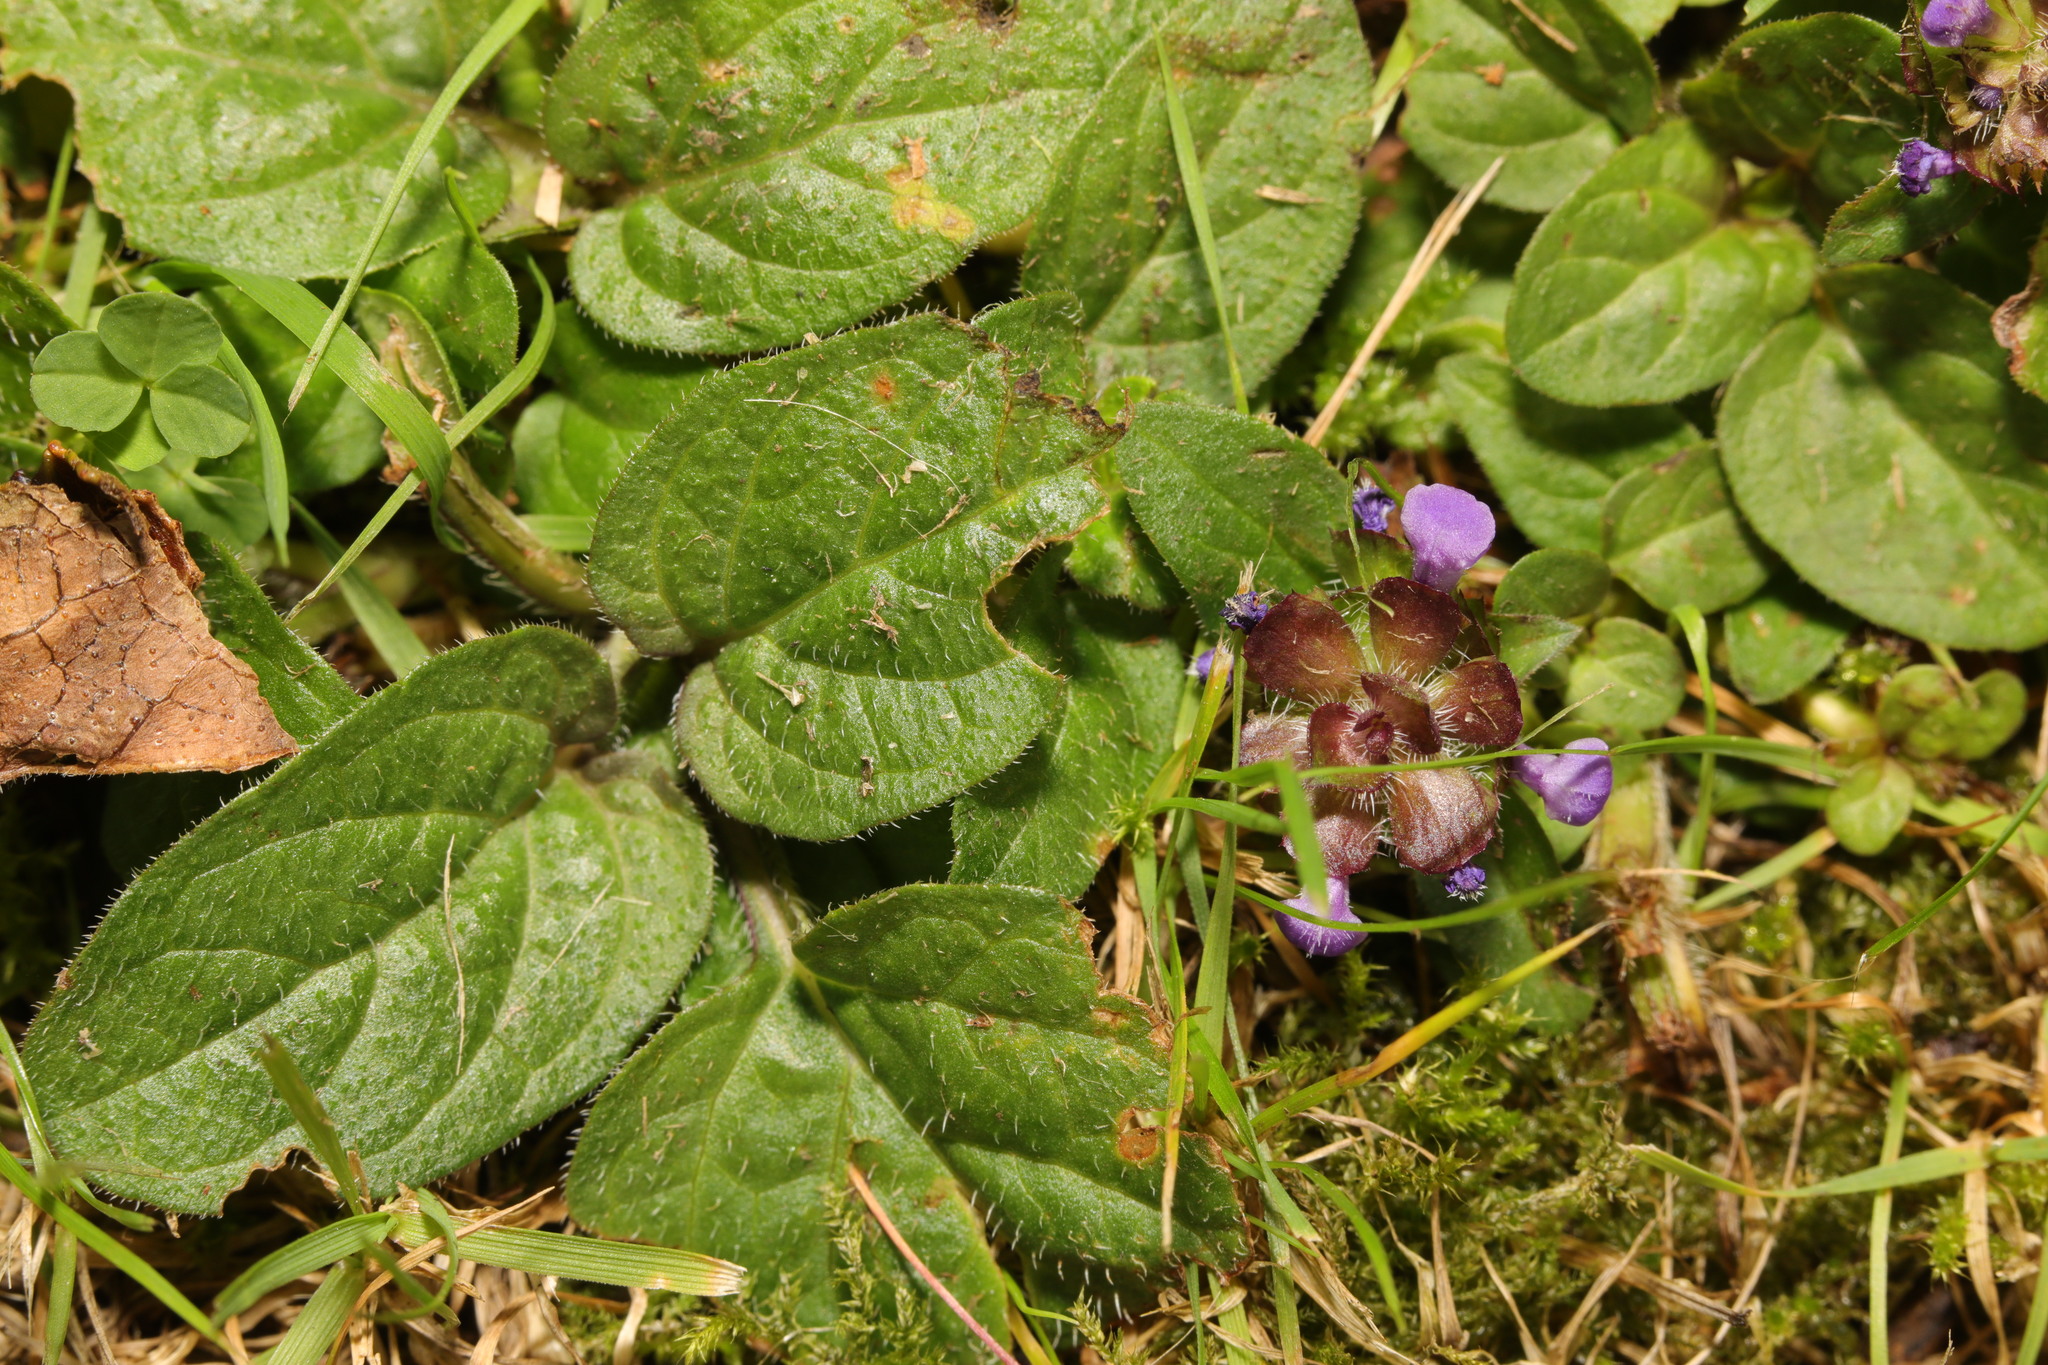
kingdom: Plantae
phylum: Tracheophyta
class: Magnoliopsida
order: Lamiales
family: Lamiaceae
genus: Prunella
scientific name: Prunella vulgaris
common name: Heal-all
